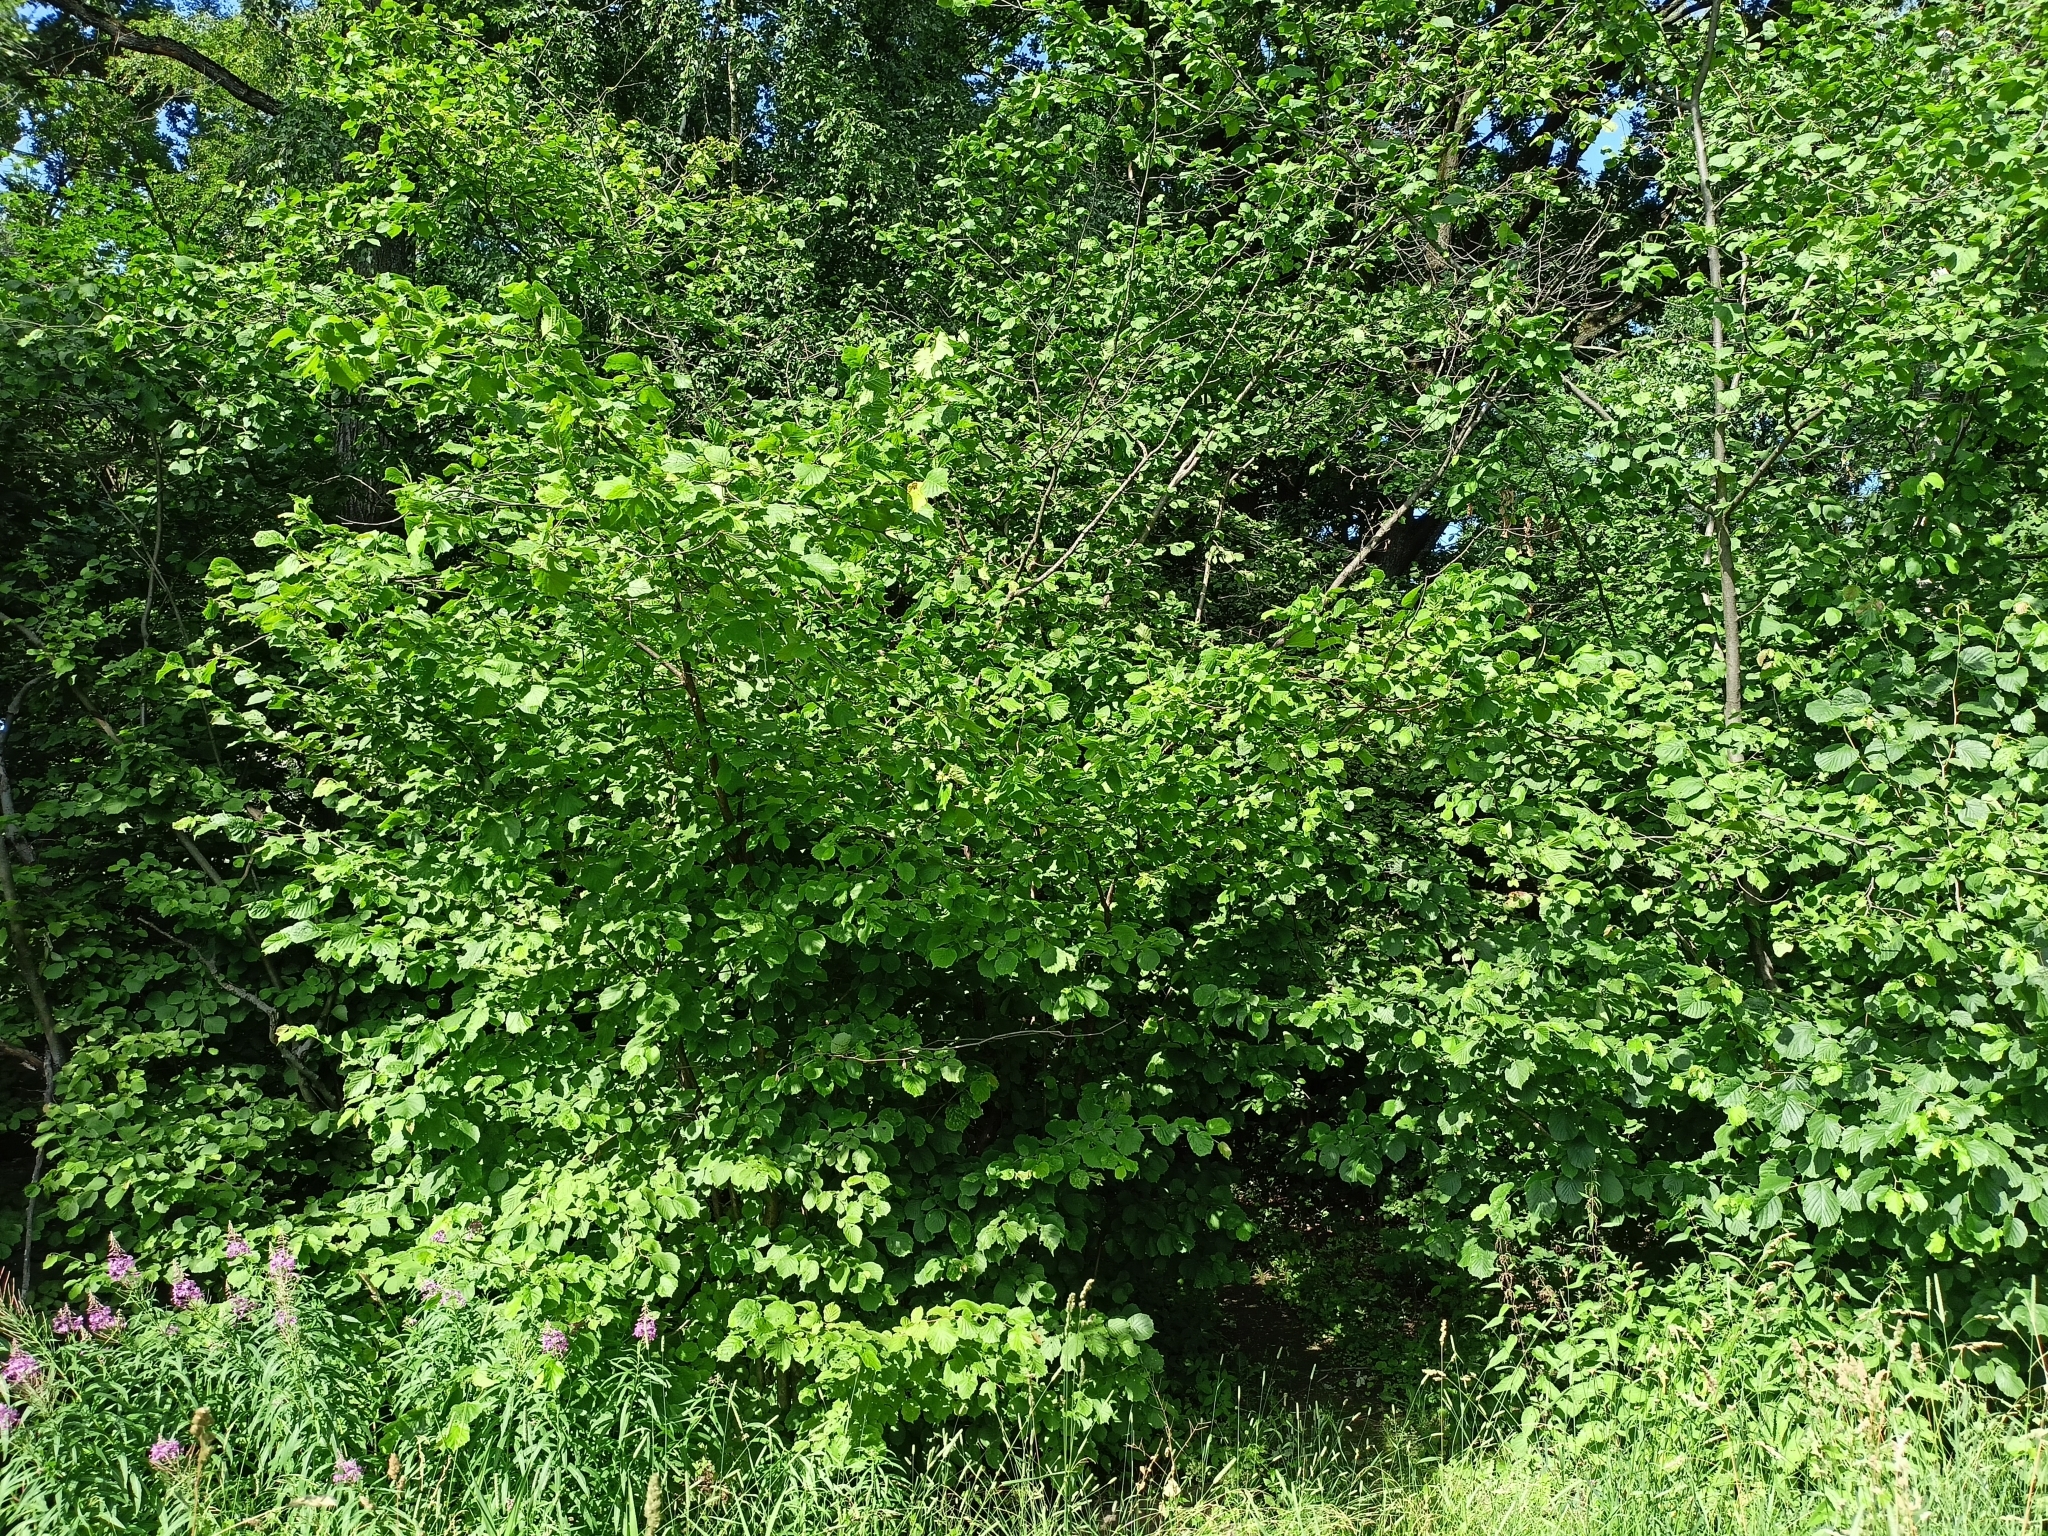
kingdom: Plantae
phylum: Tracheophyta
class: Magnoliopsida
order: Fagales
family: Betulaceae
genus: Corylus
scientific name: Corylus avellana
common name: European hazel
